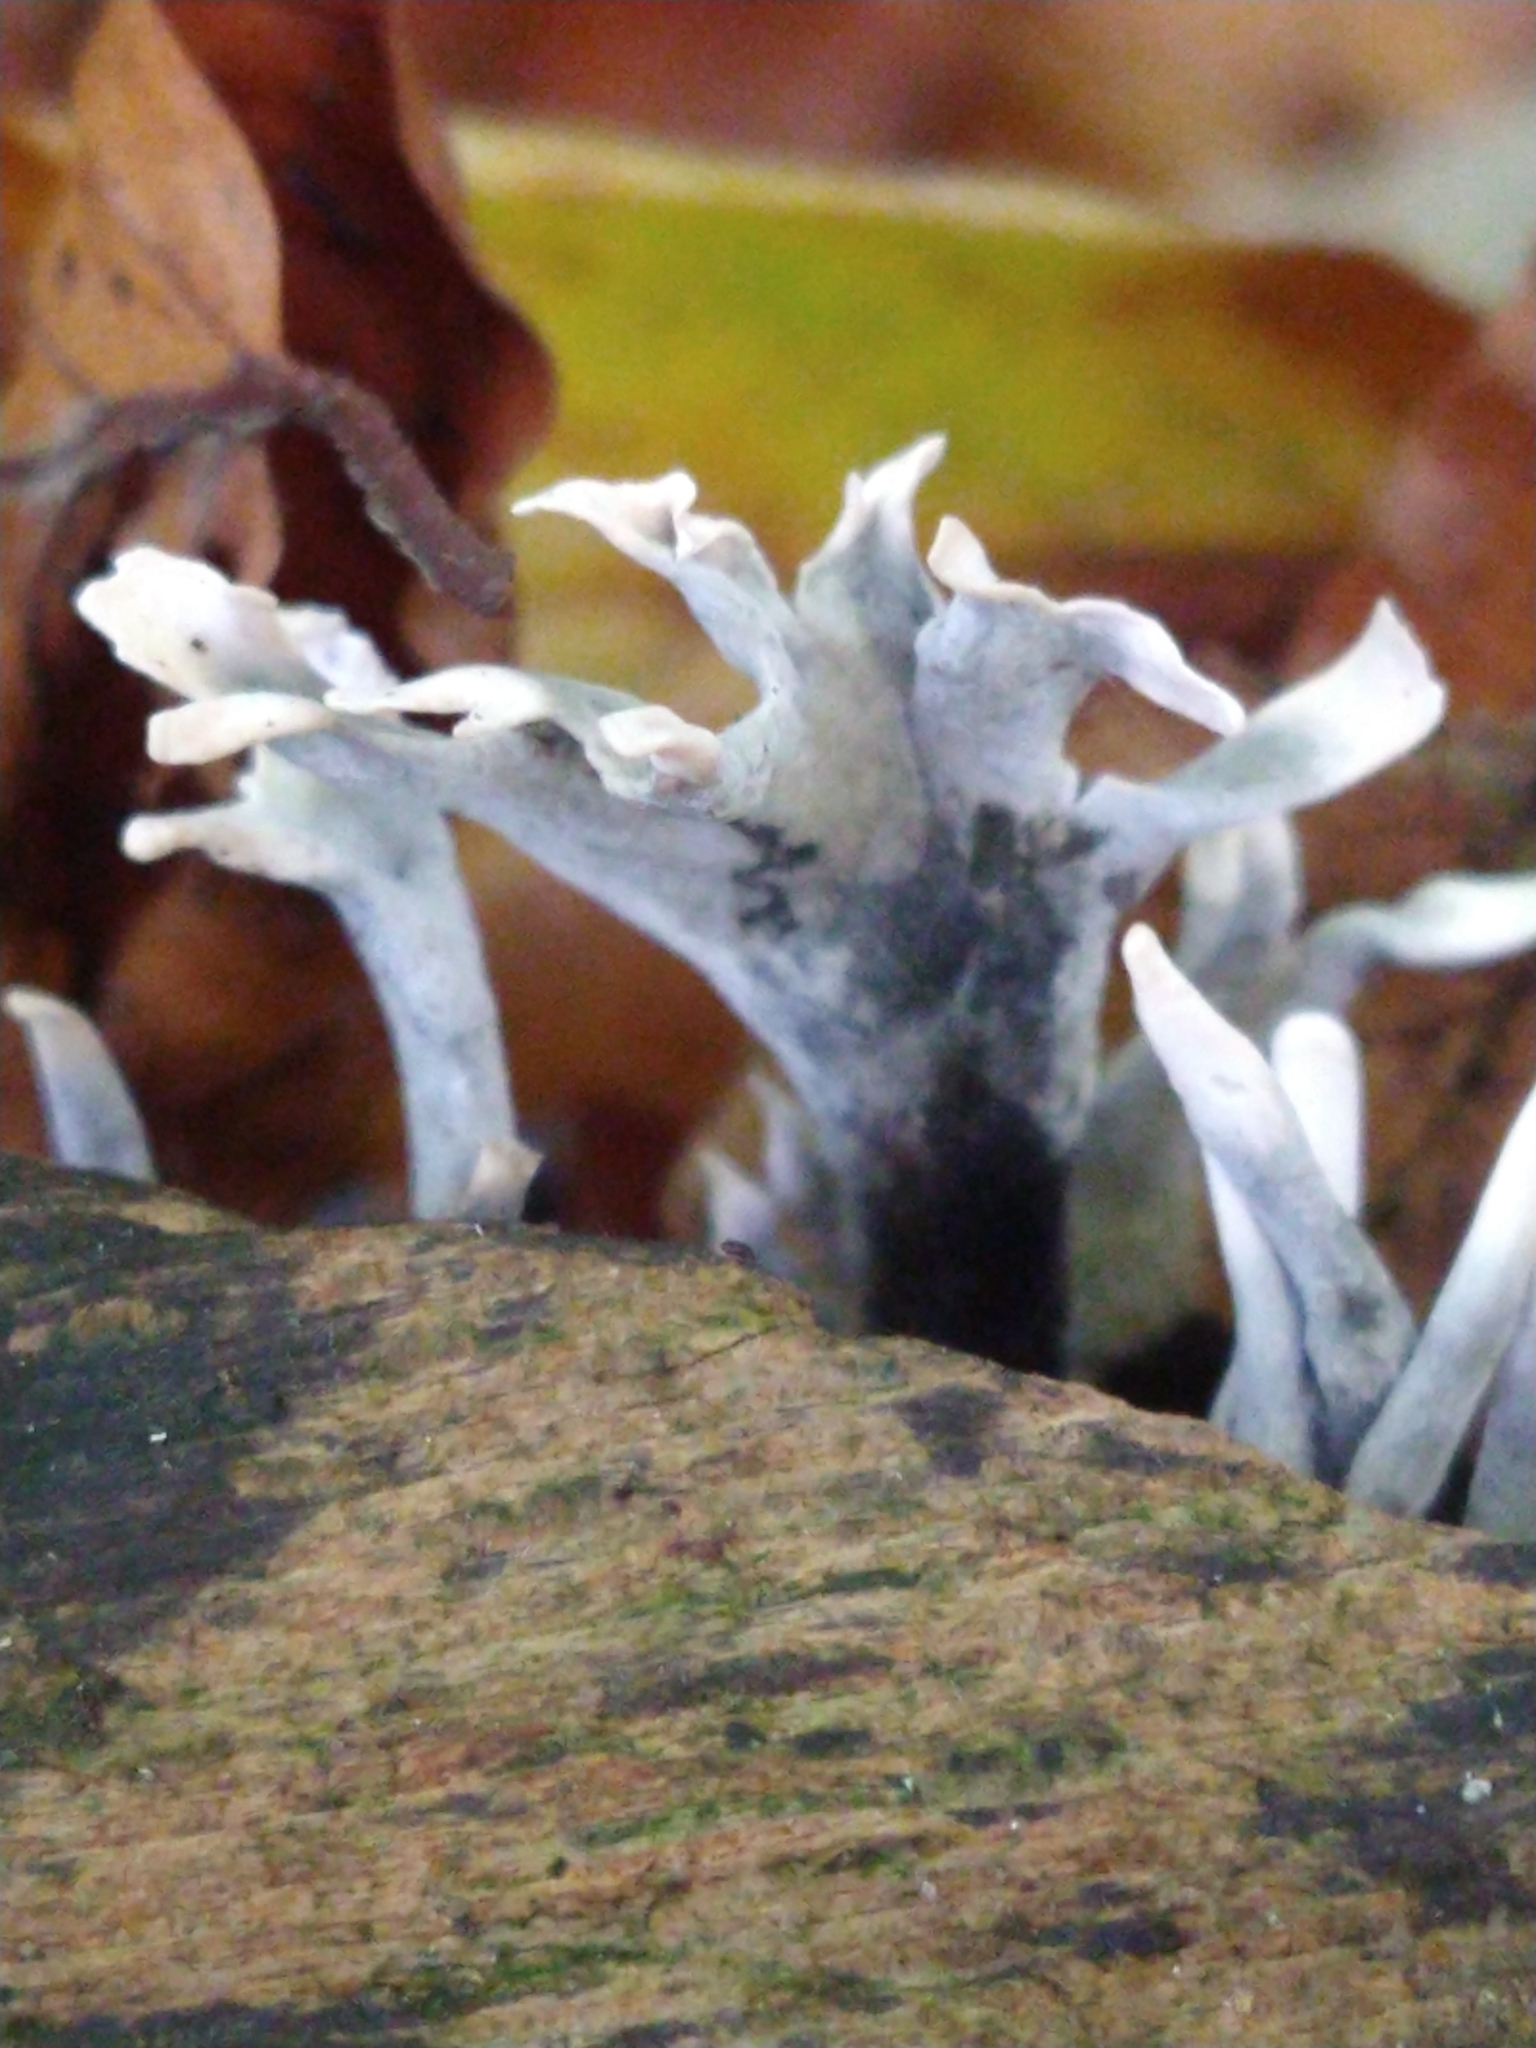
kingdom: Fungi
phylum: Ascomycota
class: Sordariomycetes
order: Xylariales
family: Xylariaceae
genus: Xylaria
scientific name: Xylaria hypoxylon
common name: Candle-snuff fungus
